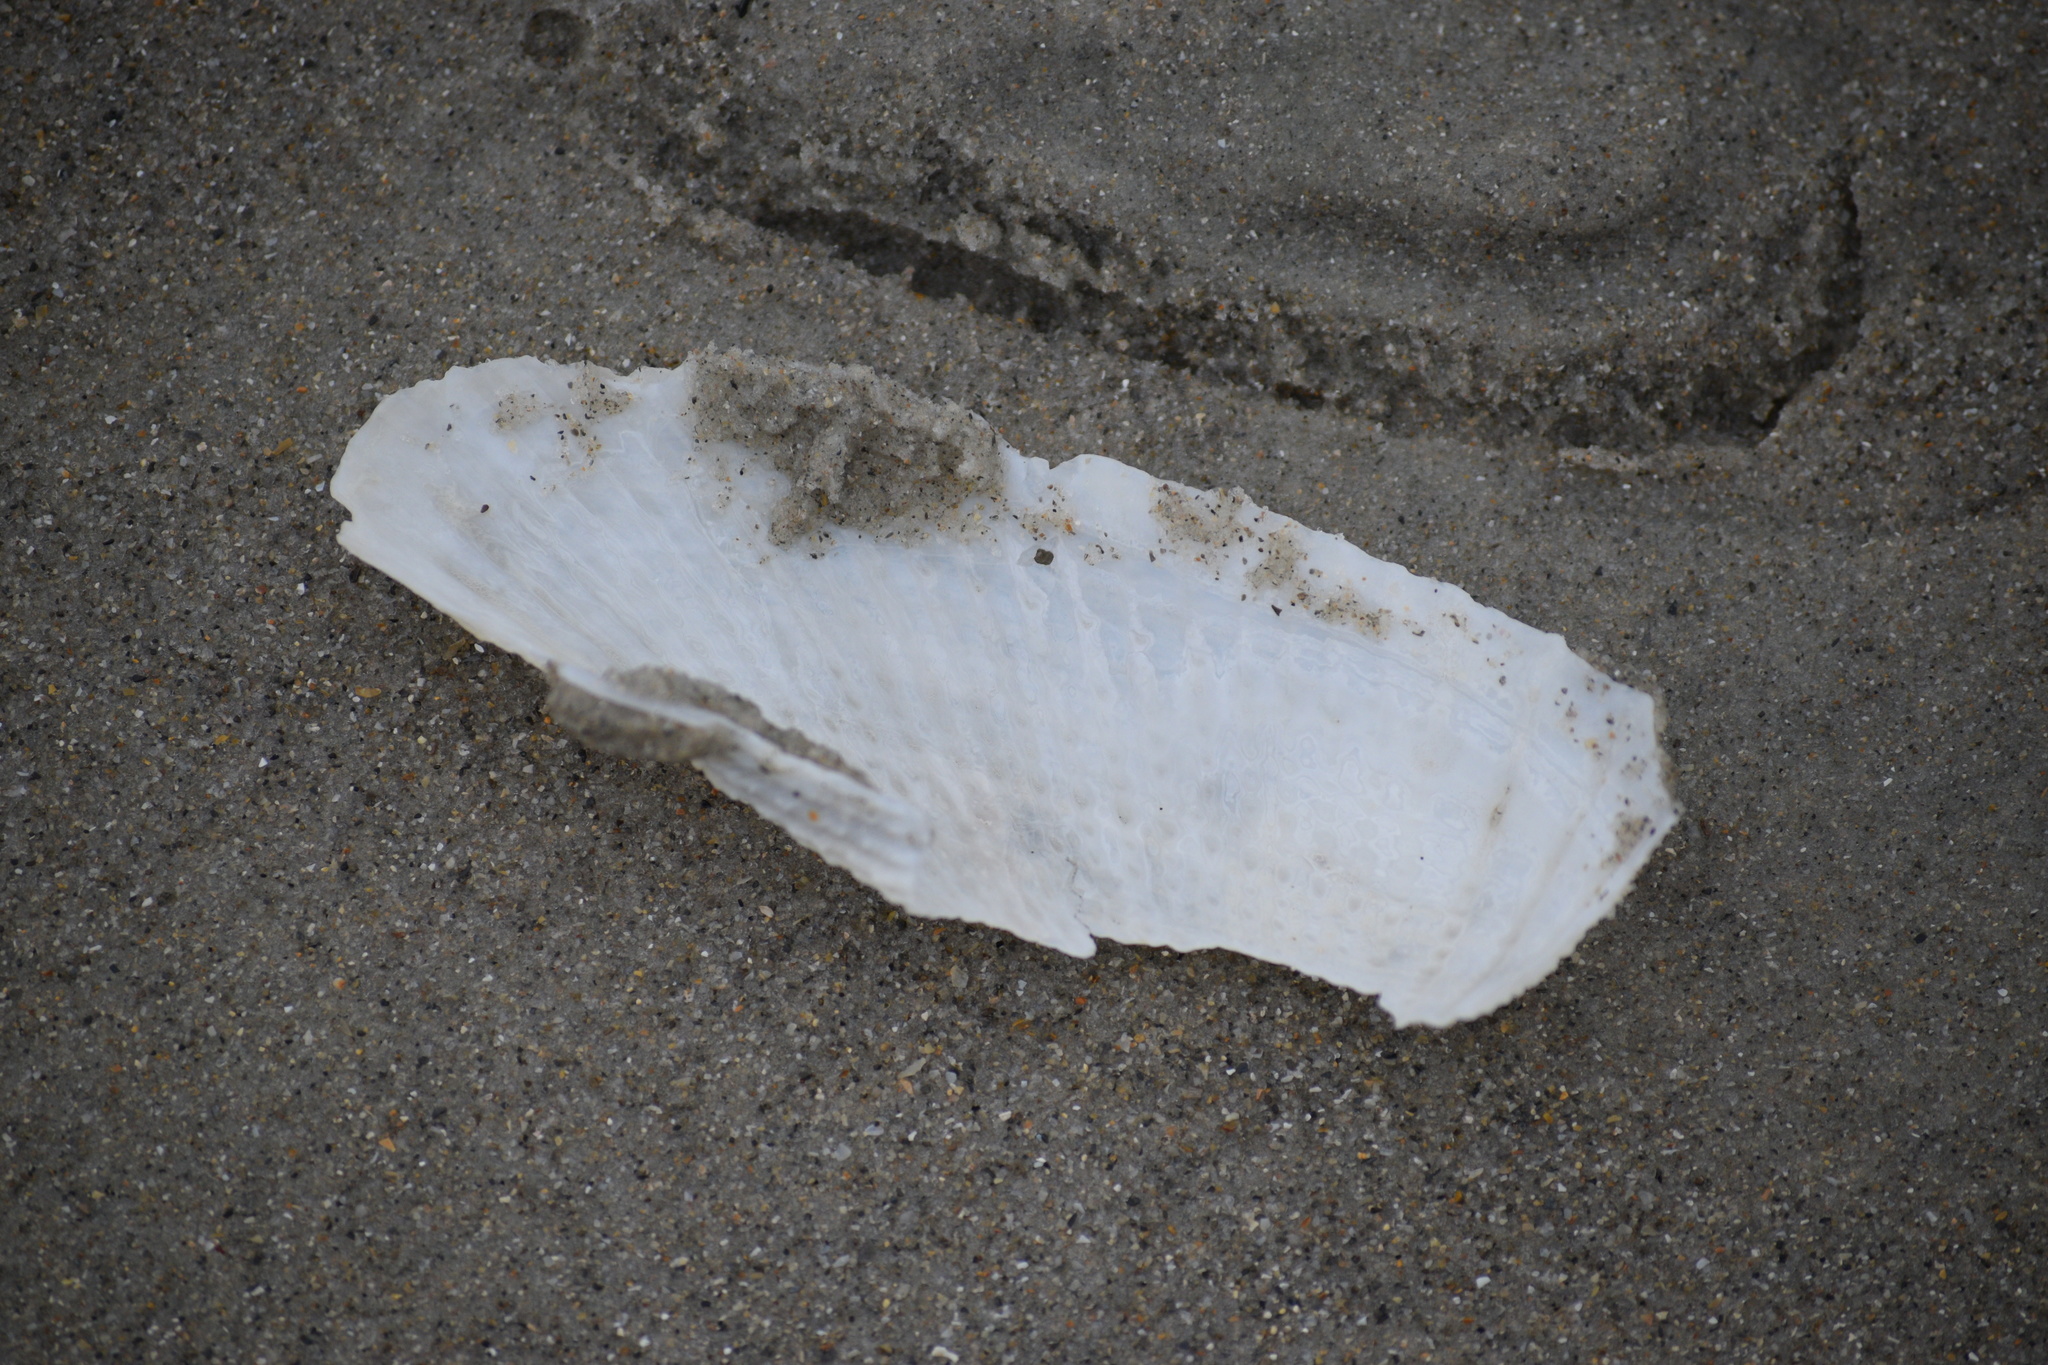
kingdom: Animalia
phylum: Mollusca
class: Bivalvia
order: Myida
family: Pholadidae
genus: Cyrtopleura
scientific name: Cyrtopleura costata
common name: Angel wing
